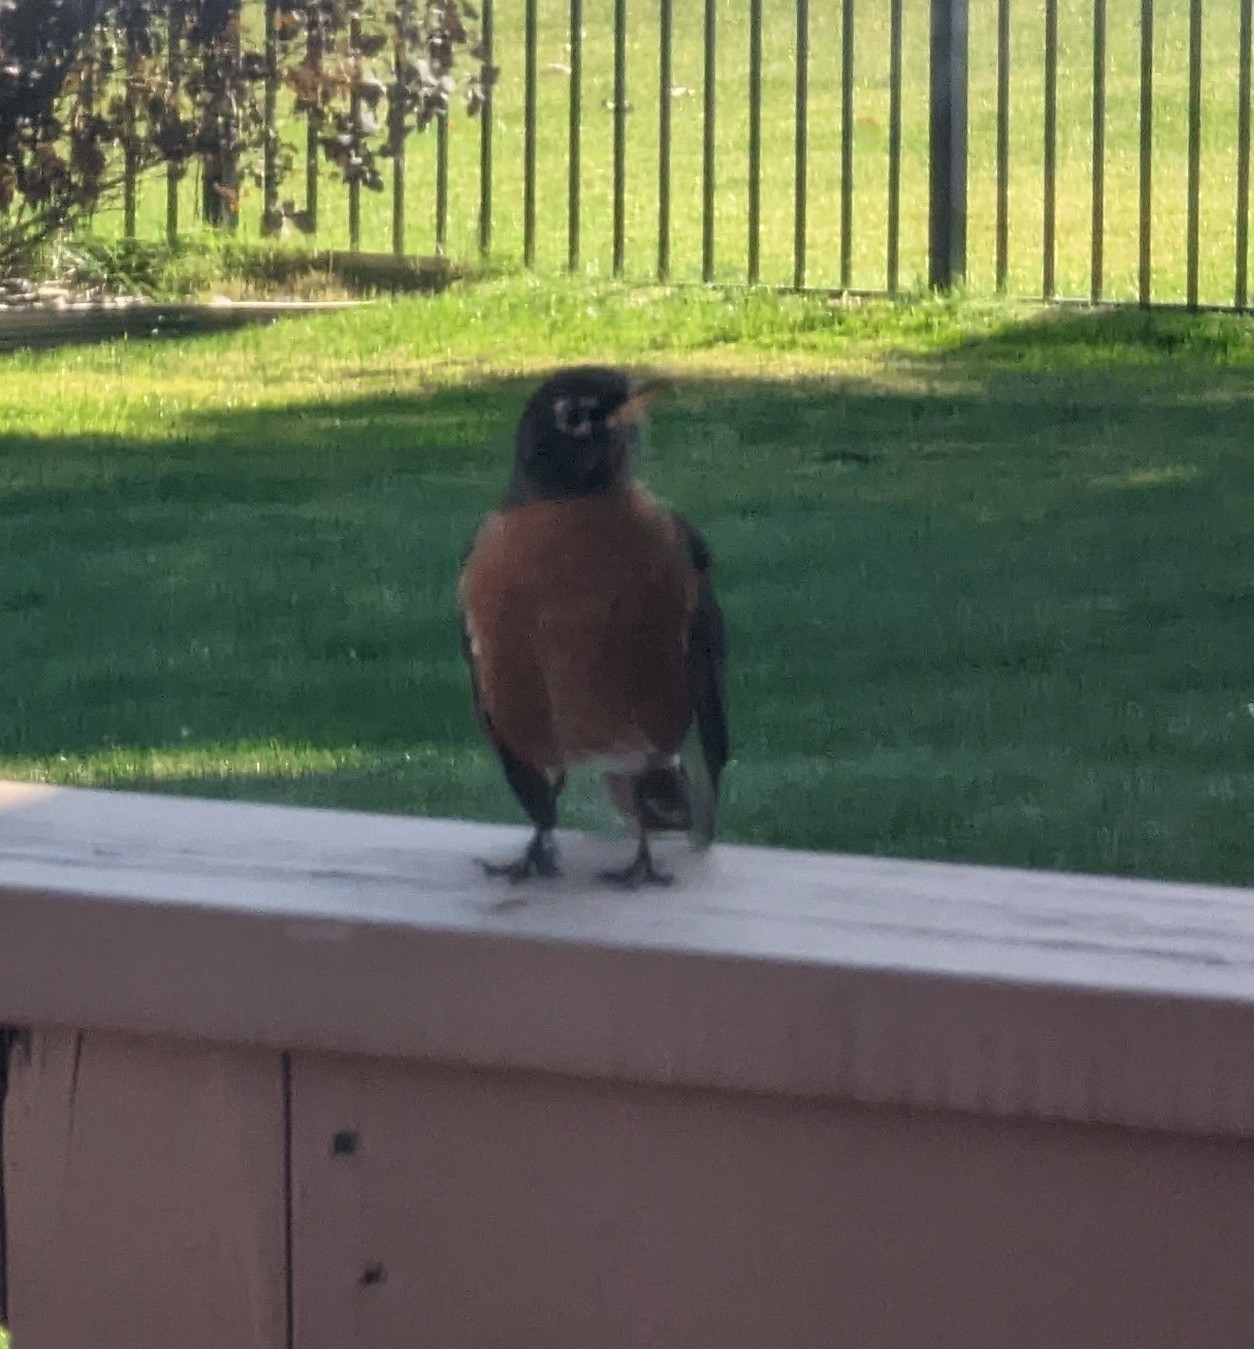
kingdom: Animalia
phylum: Chordata
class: Aves
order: Passeriformes
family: Turdidae
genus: Turdus
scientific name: Turdus migratorius
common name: American robin
